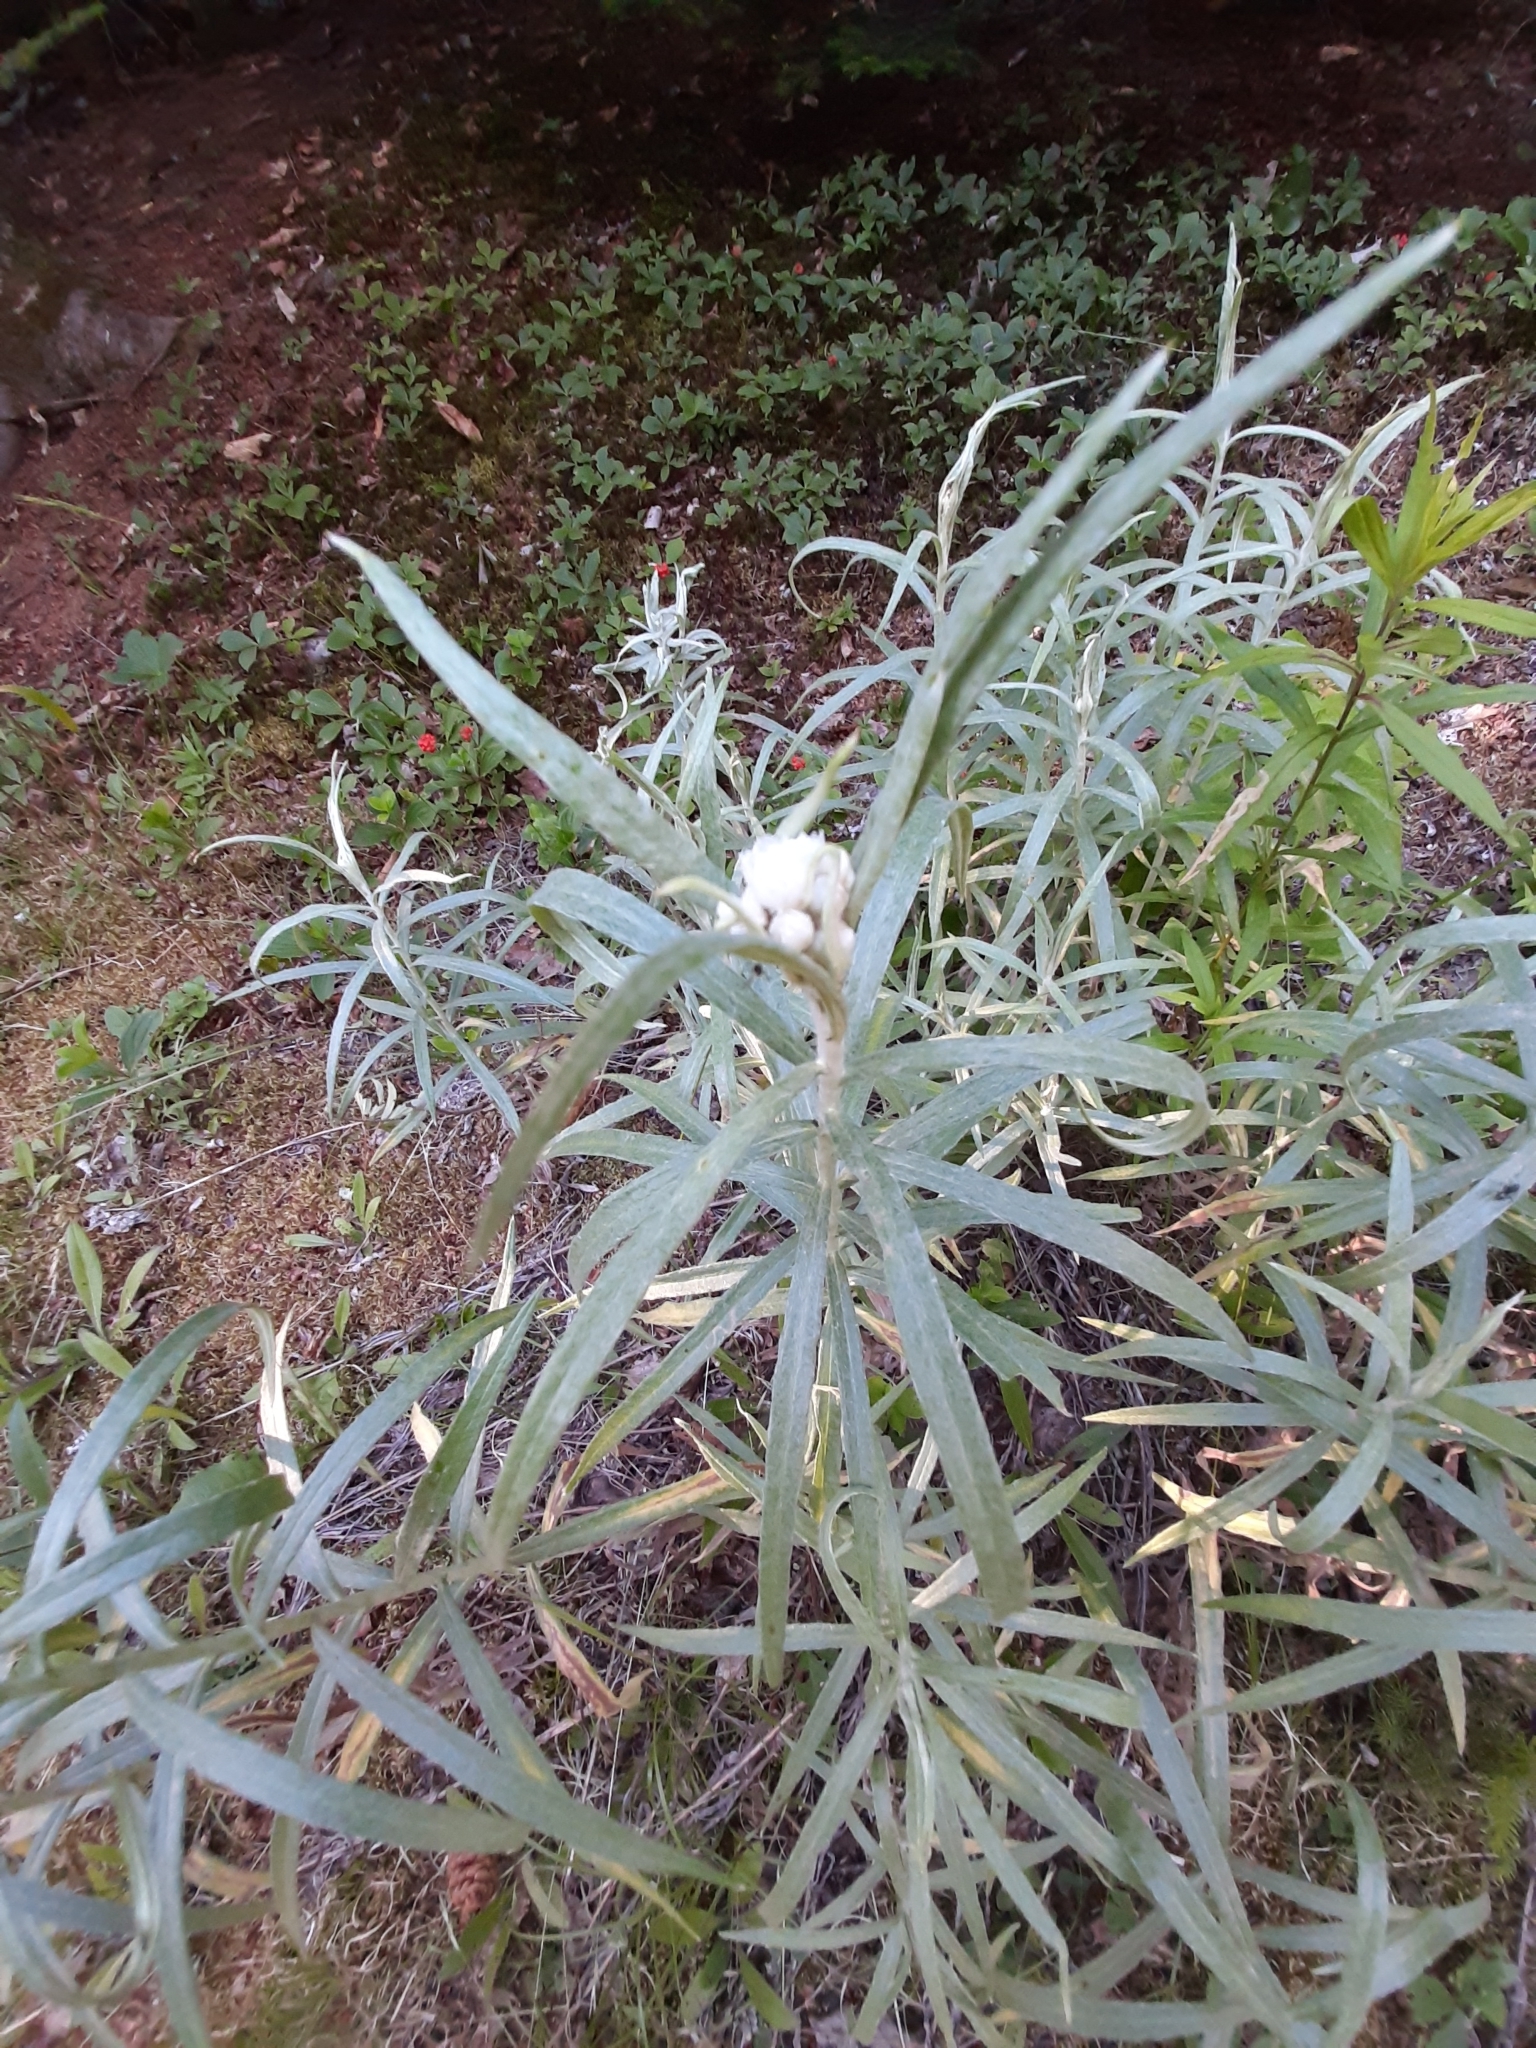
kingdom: Plantae
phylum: Tracheophyta
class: Magnoliopsida
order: Asterales
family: Asteraceae
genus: Anaphalis
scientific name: Anaphalis margaritacea
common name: Pearly everlasting
